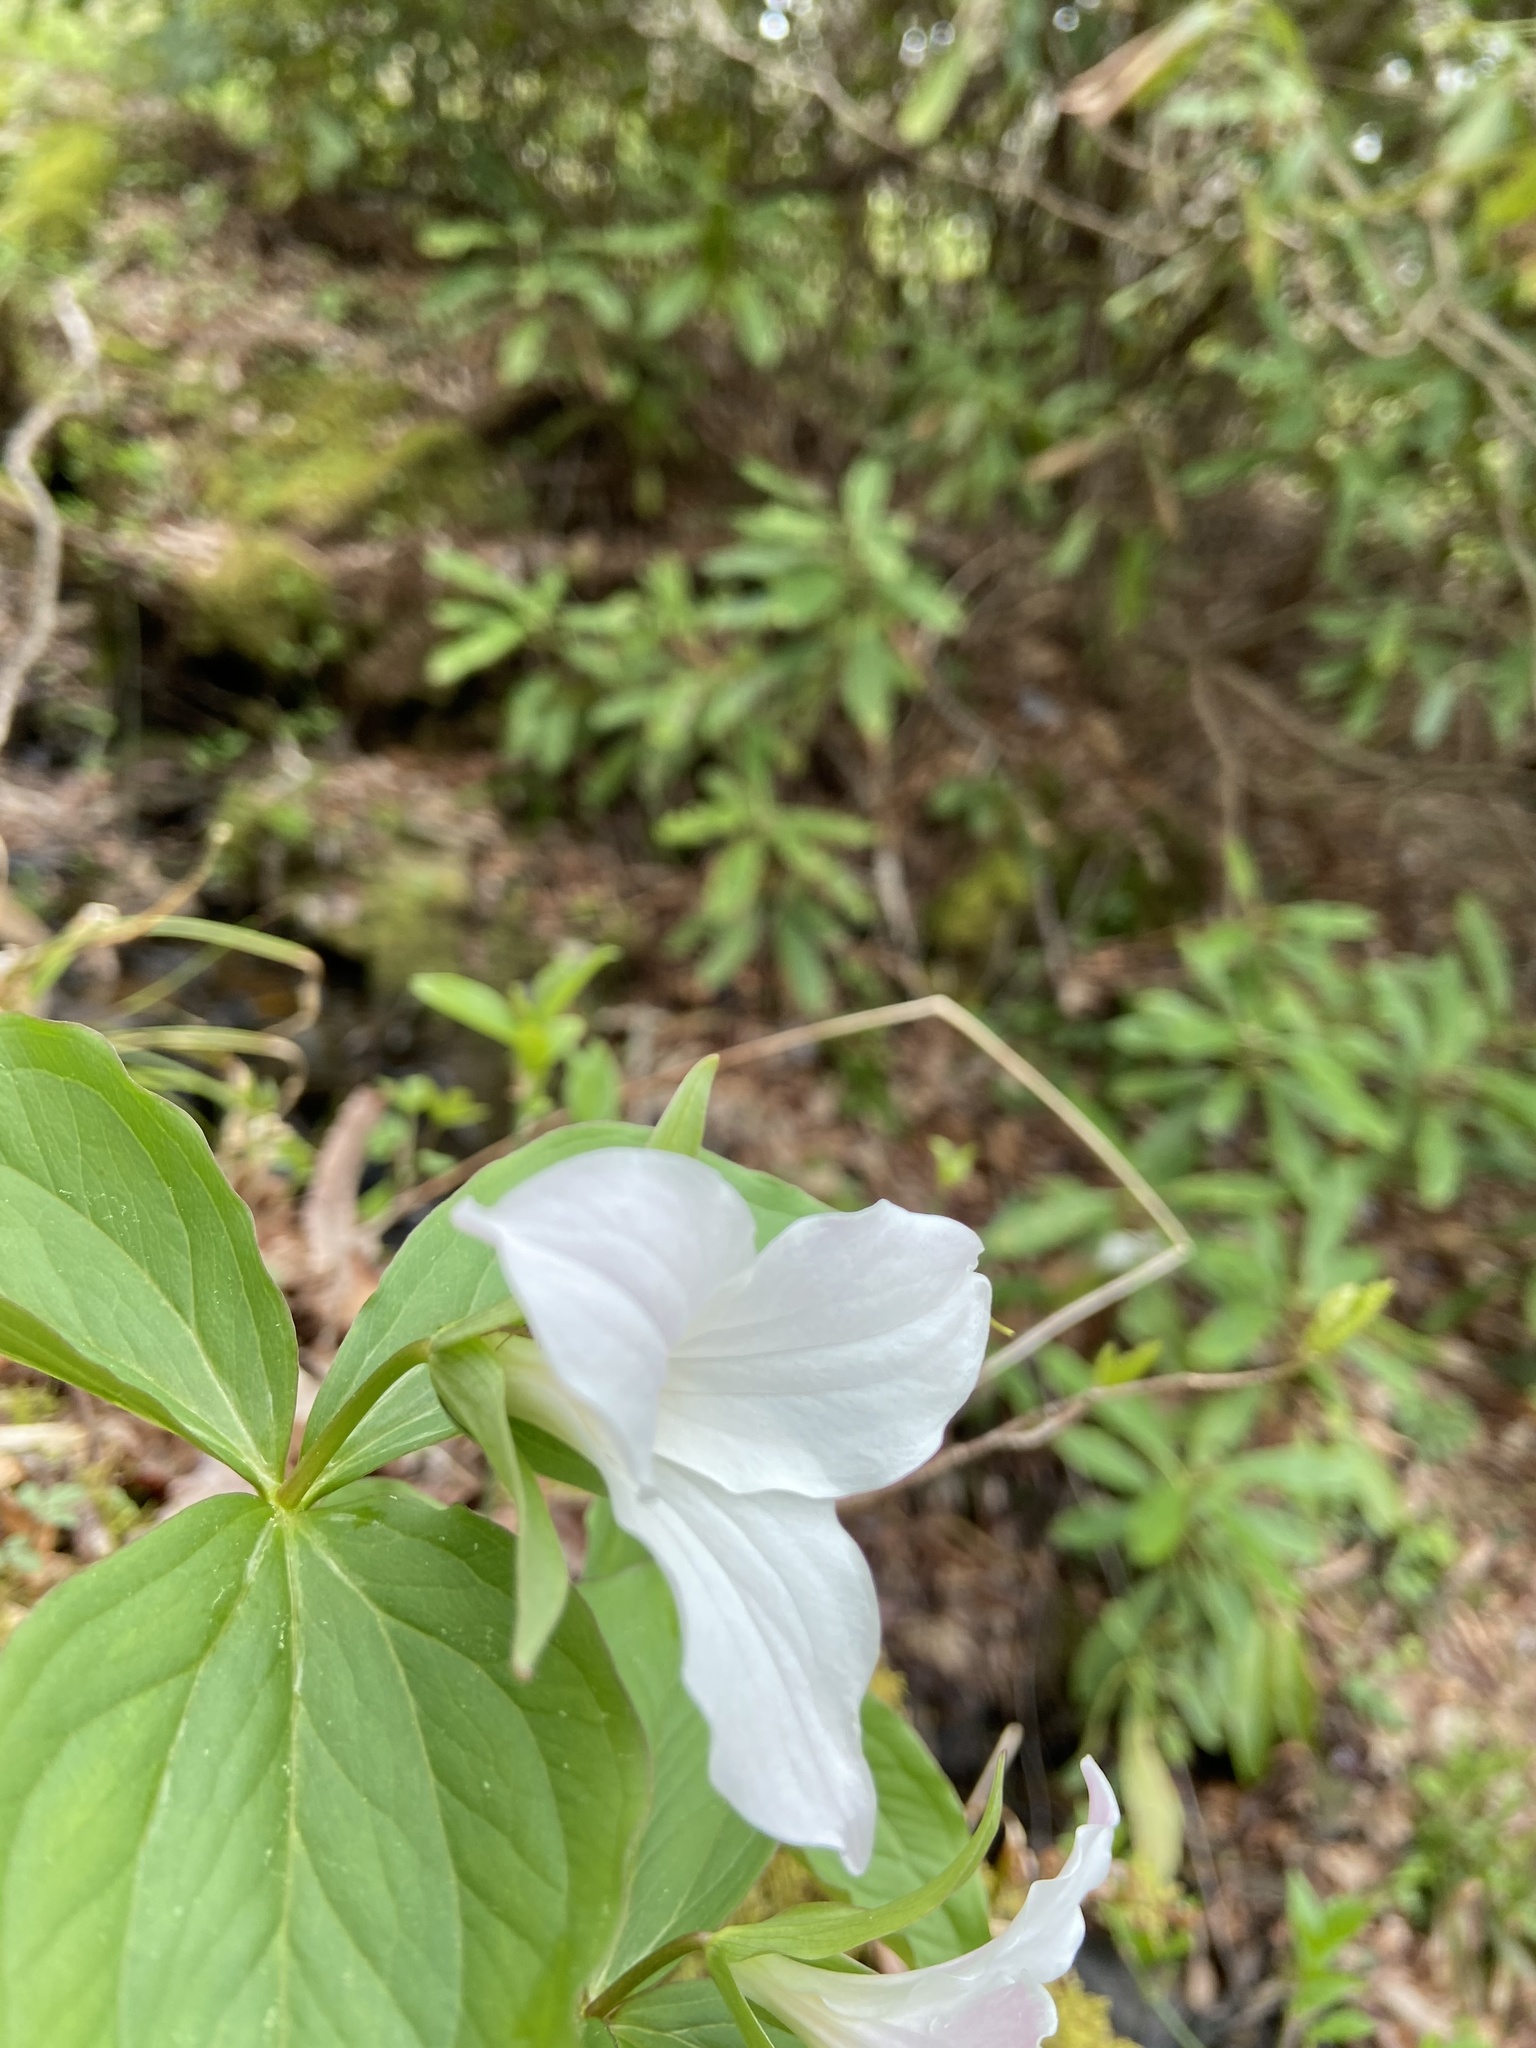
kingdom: Plantae
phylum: Tracheophyta
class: Liliopsida
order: Liliales
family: Melanthiaceae
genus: Trillium
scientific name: Trillium grandiflorum
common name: Great white trillium
